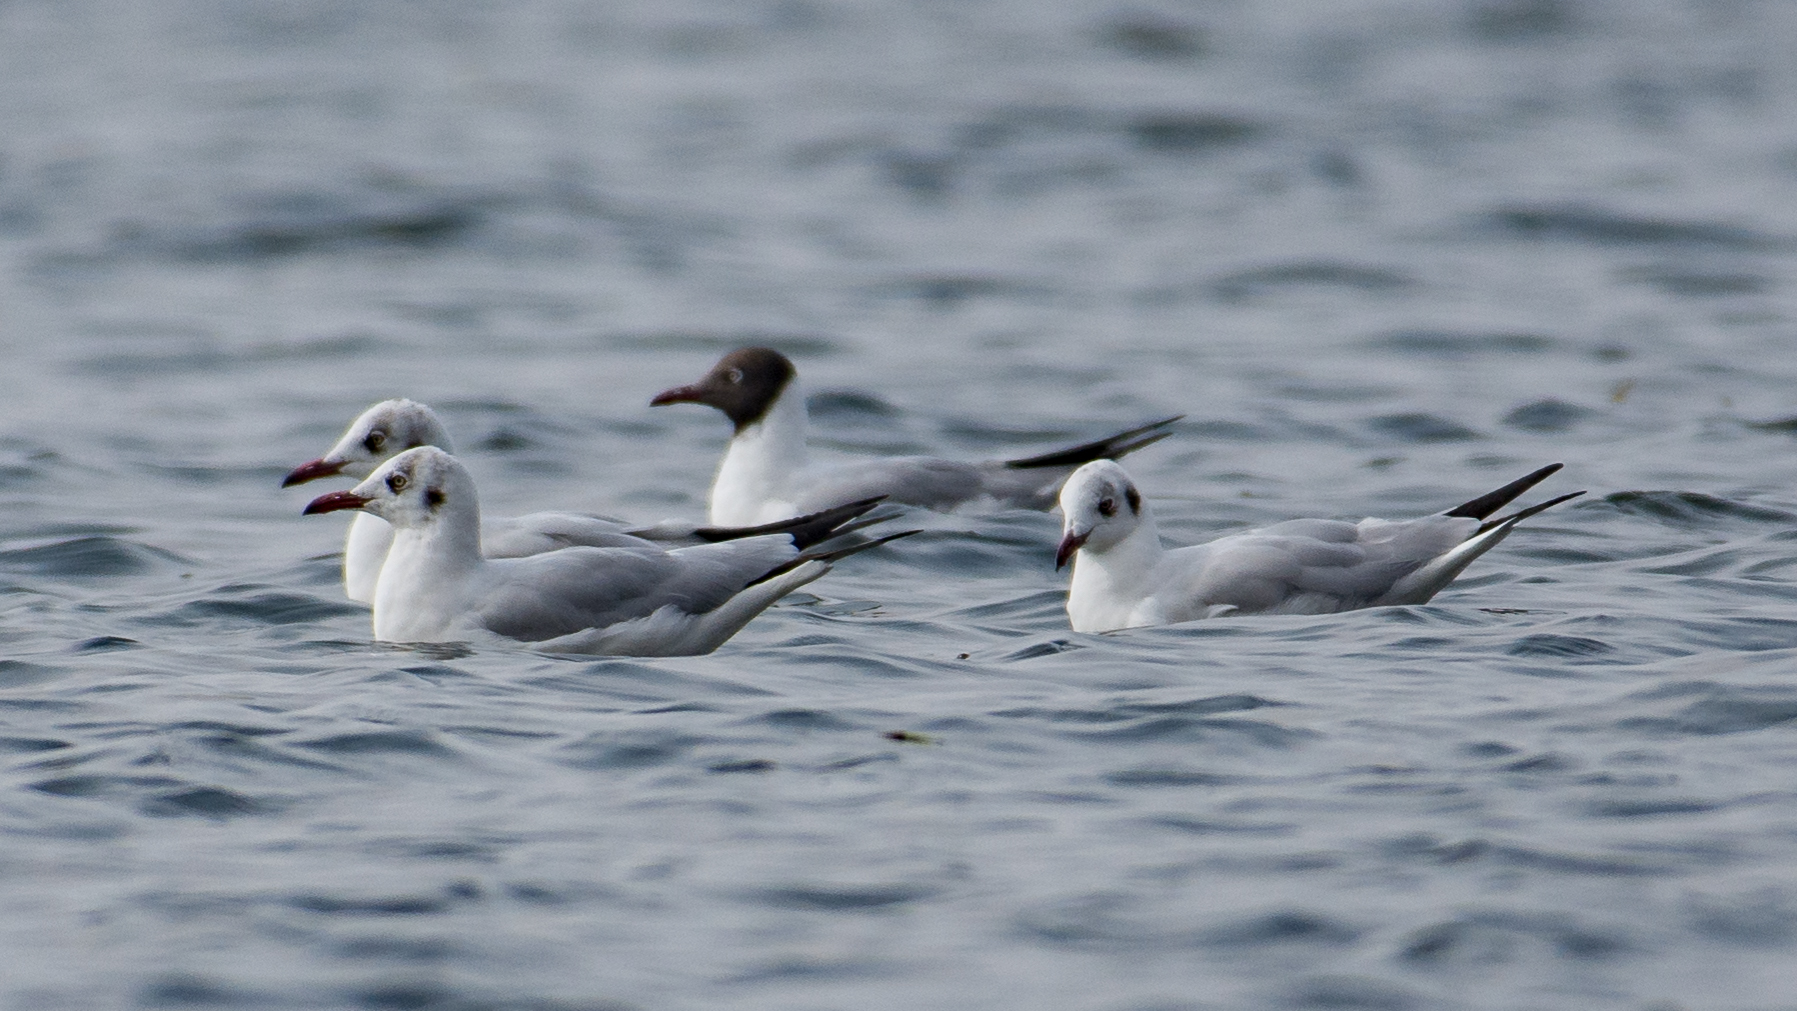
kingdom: Animalia
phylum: Chordata
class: Aves
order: Charadriiformes
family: Laridae
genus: Chroicocephalus
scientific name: Chroicocephalus ridibundus
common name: Black-headed gull
